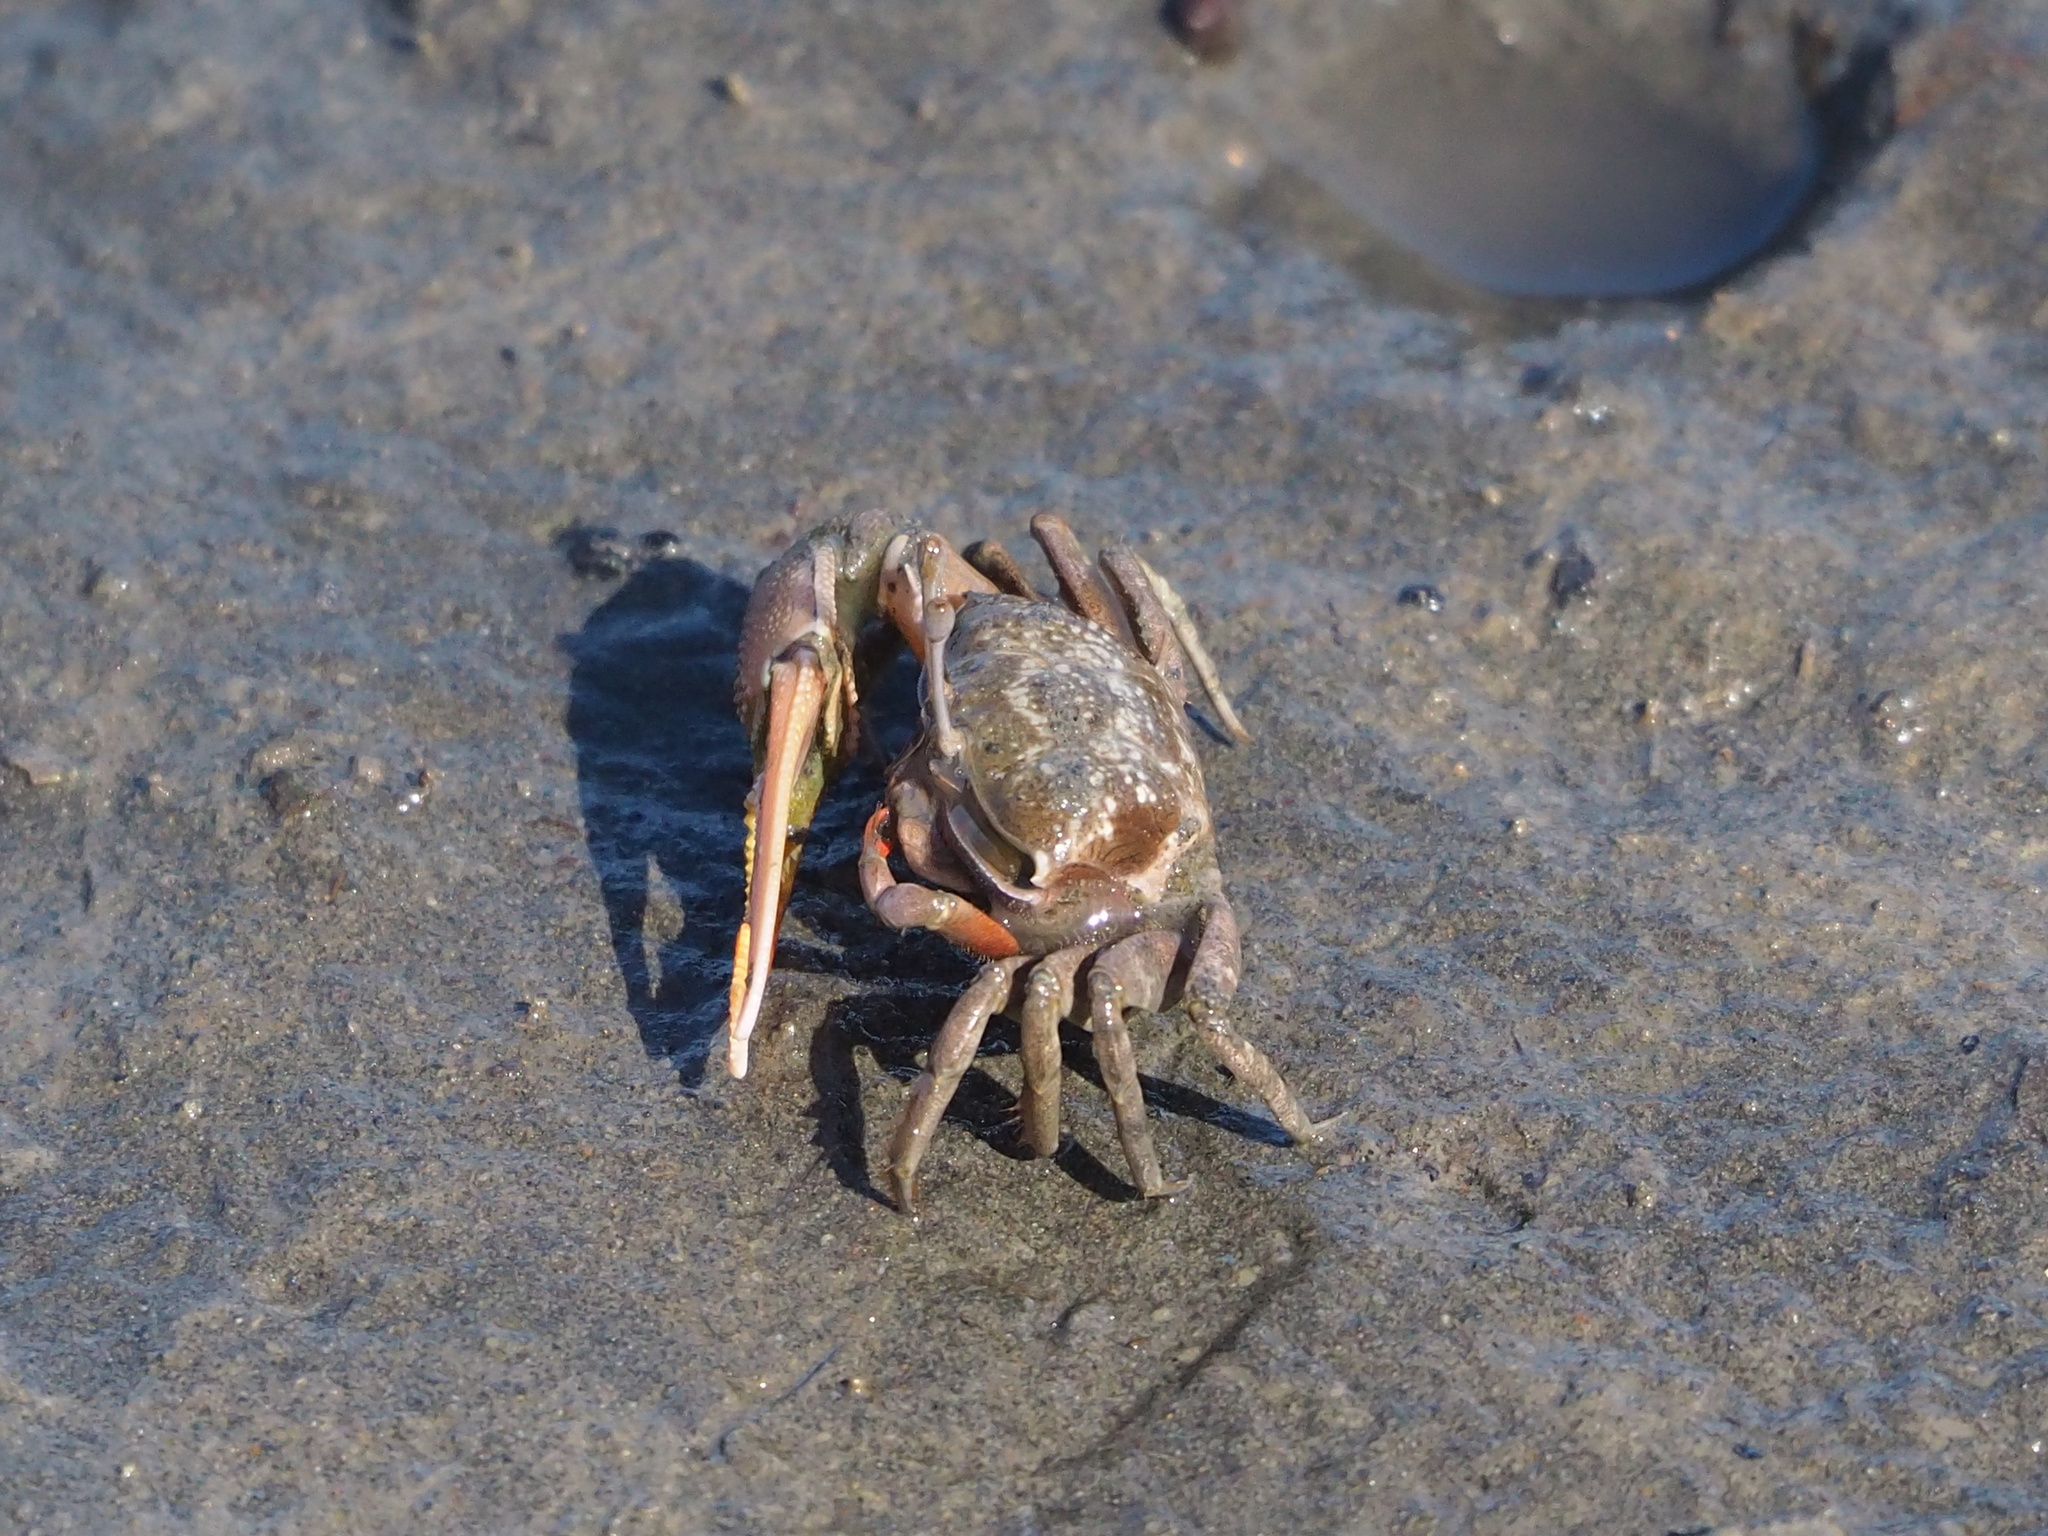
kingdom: Animalia
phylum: Arthropoda
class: Malacostraca
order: Decapoda
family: Ocypodidae
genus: Gelasimus
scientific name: Gelasimus borealis
